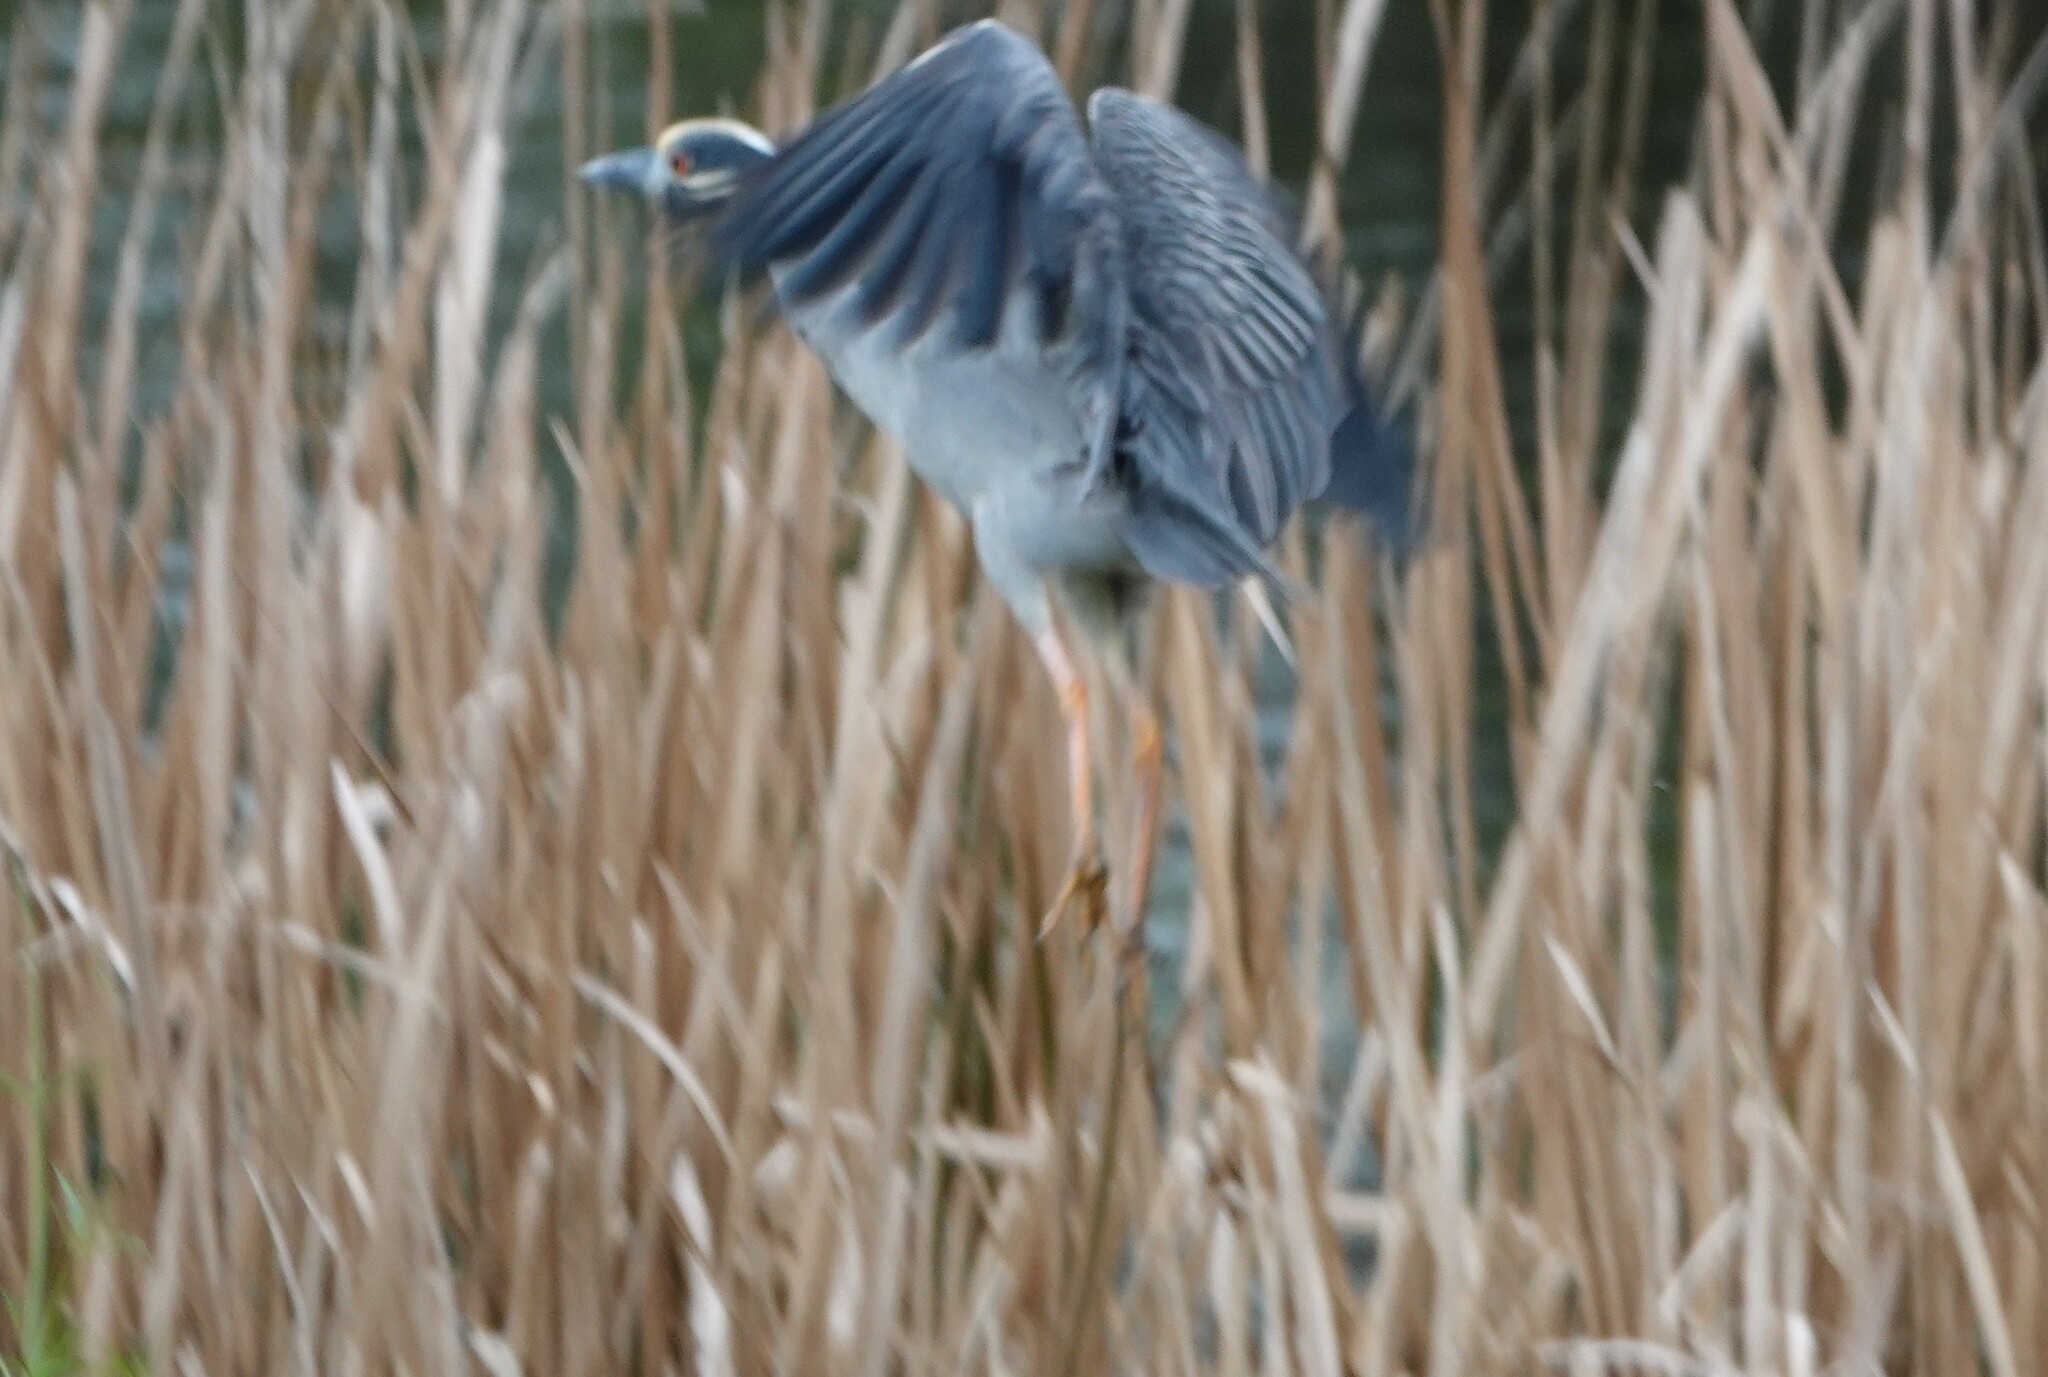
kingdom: Animalia
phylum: Chordata
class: Aves
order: Pelecaniformes
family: Ardeidae
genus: Nyctanassa
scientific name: Nyctanassa violacea
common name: Yellow-crowned night heron
